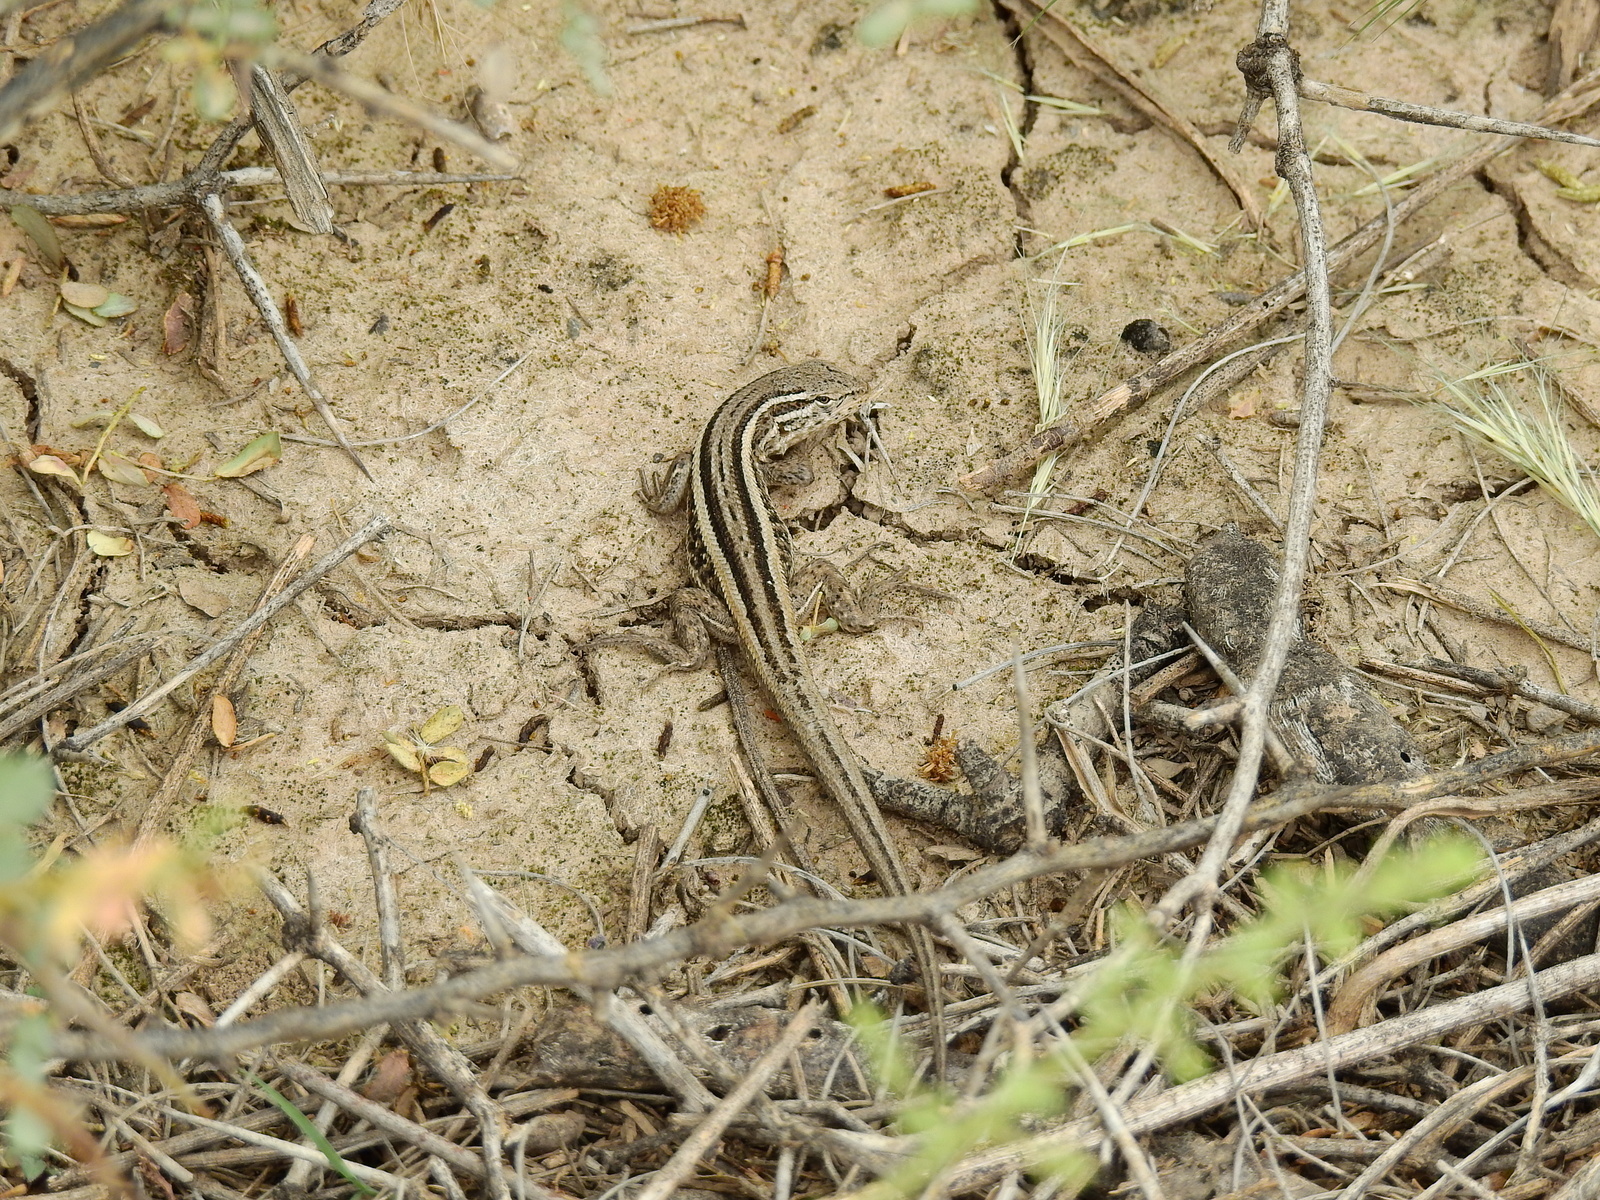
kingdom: Animalia
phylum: Chordata
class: Squamata
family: Liolaemidae
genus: Liolaemus
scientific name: Liolaemus gracilis
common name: Graceful tree iguana
